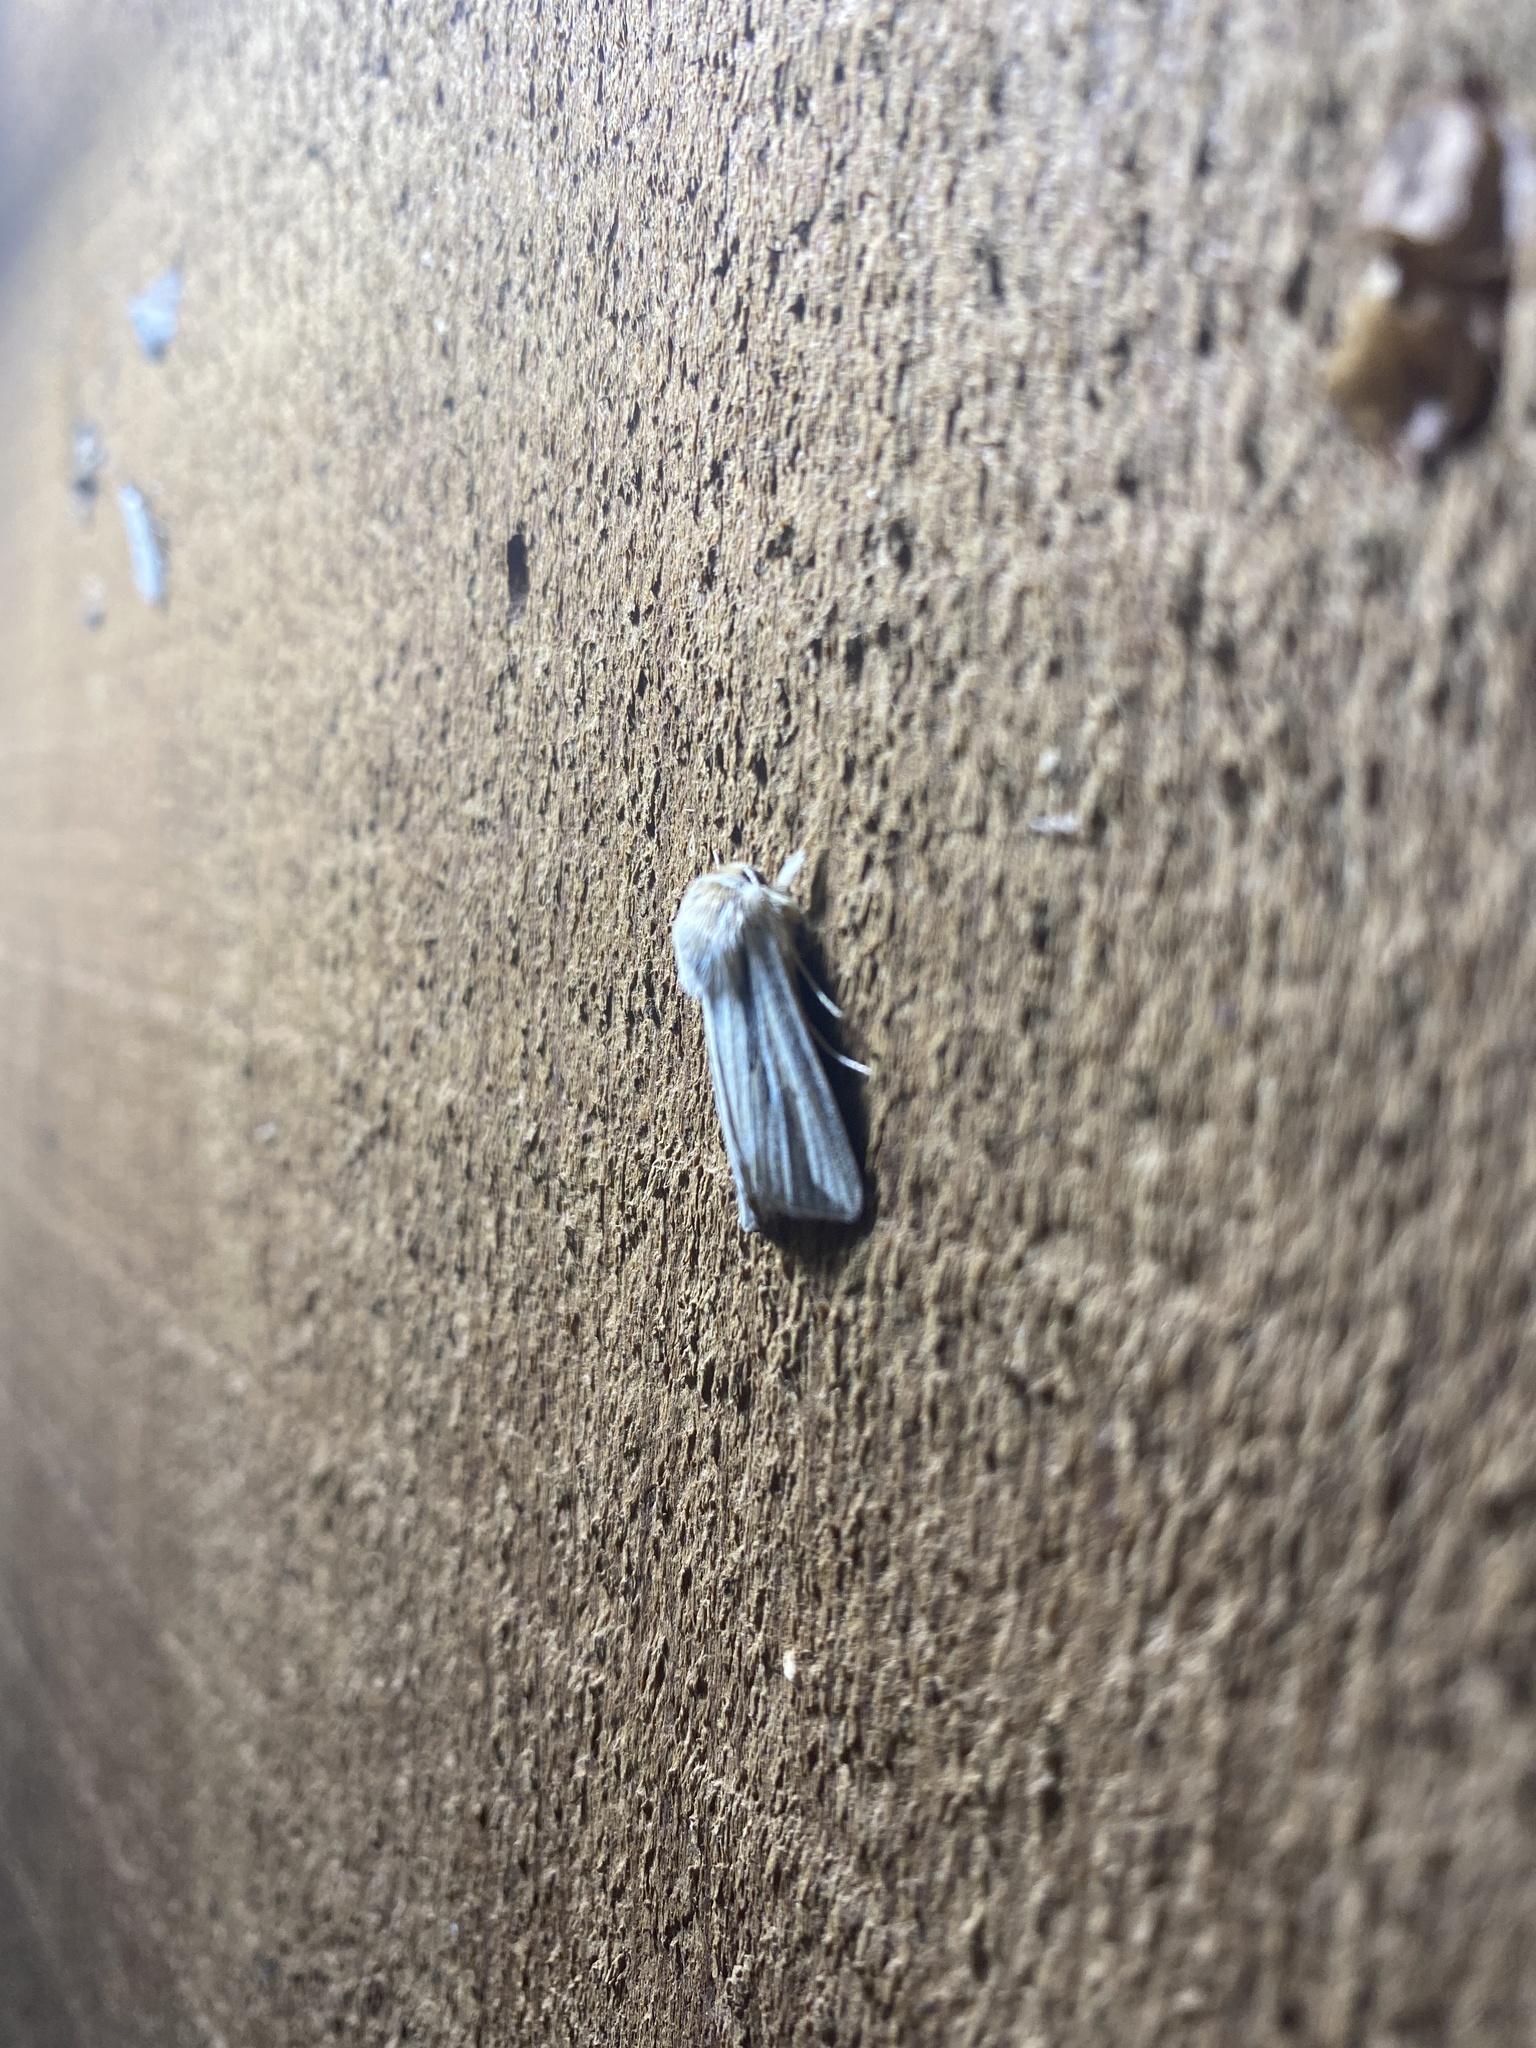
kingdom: Animalia
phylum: Arthropoda
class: Insecta
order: Lepidoptera
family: Noctuidae
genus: Dargida
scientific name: Dargida diffusa
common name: Wheat head armyworm
